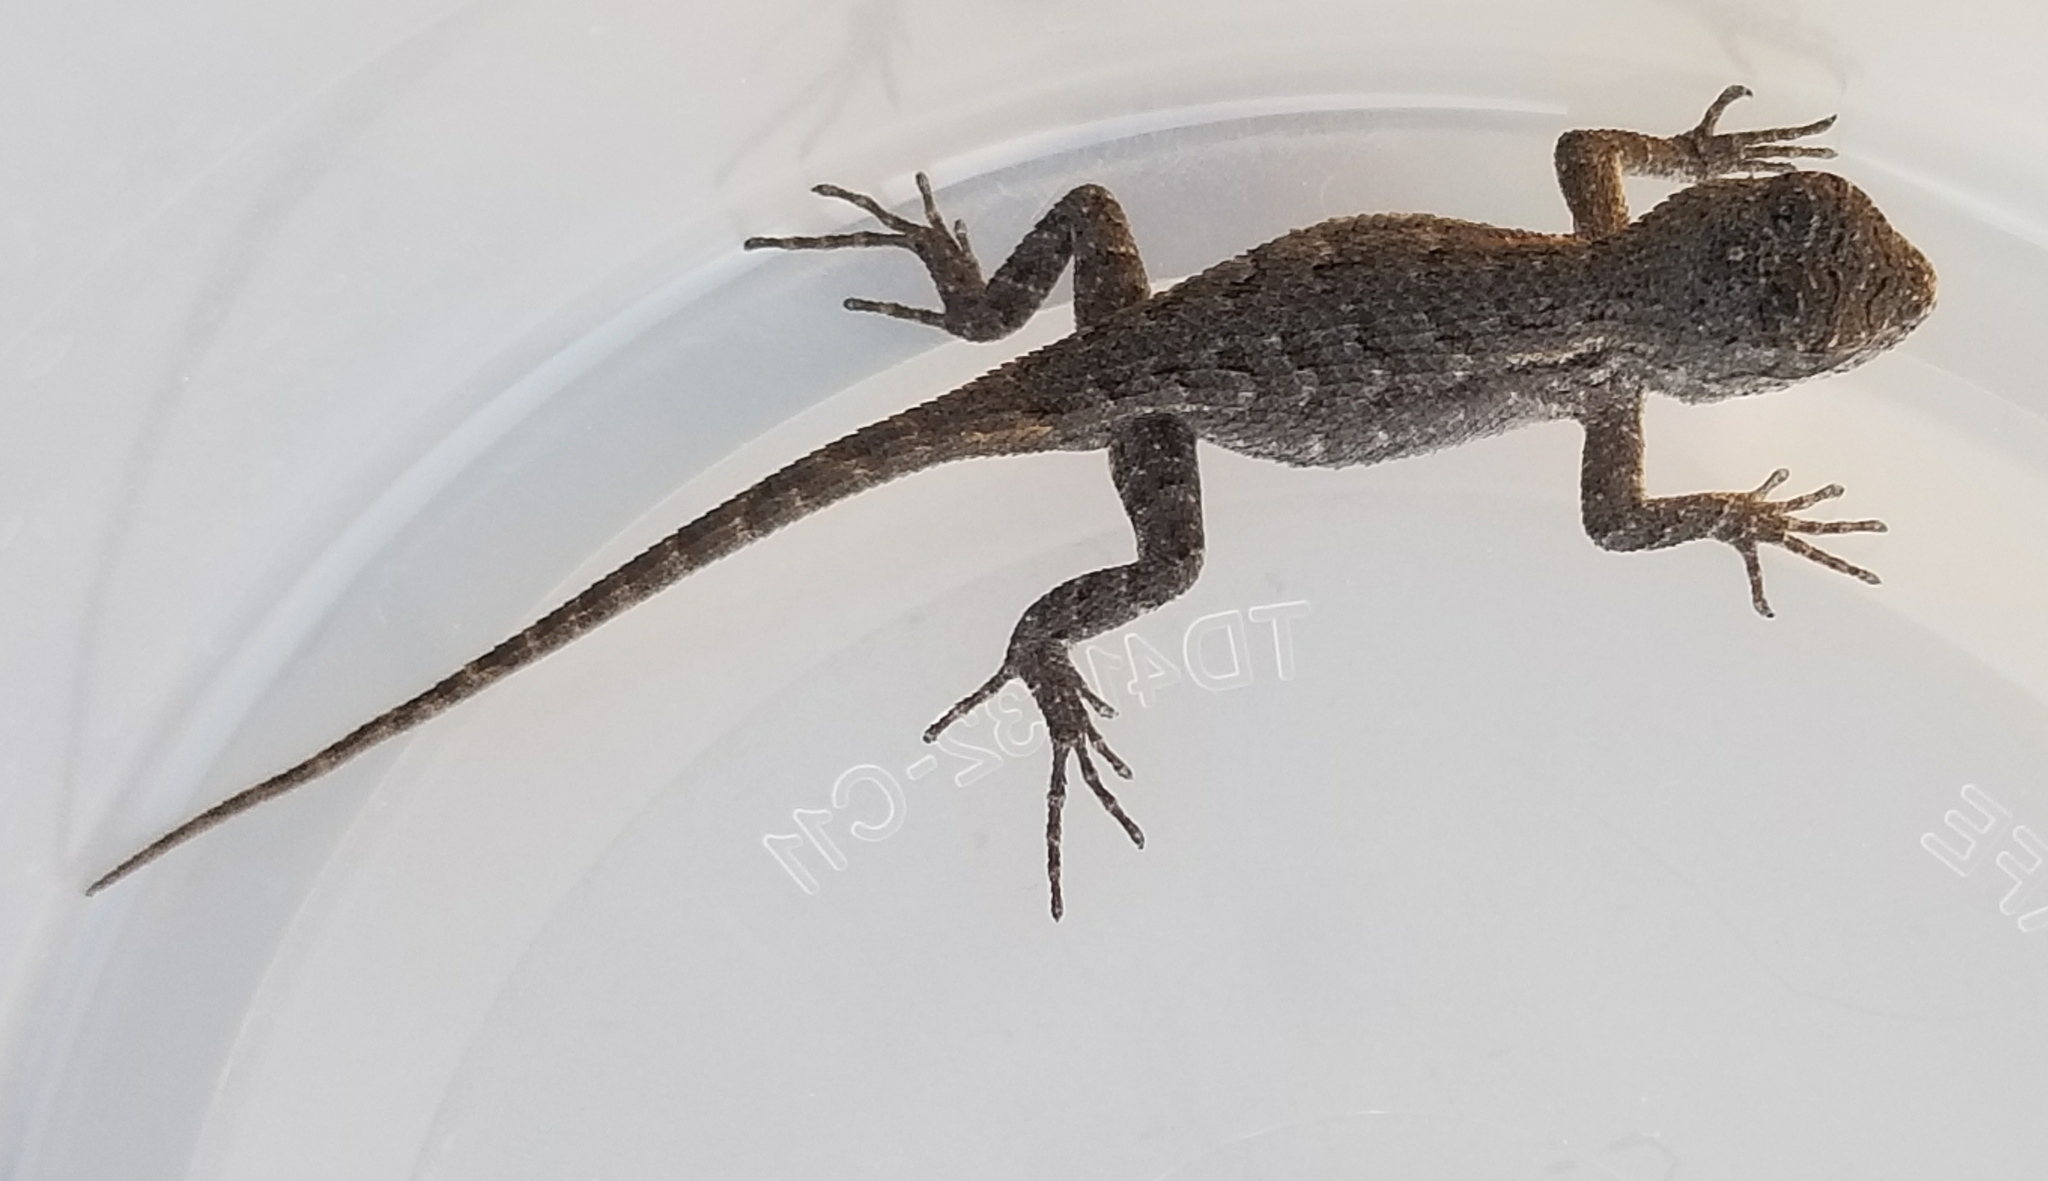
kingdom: Animalia
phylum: Chordata
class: Squamata
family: Phrynosomatidae
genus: Sceloporus
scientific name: Sceloporus occidentalis
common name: Western fence lizard
